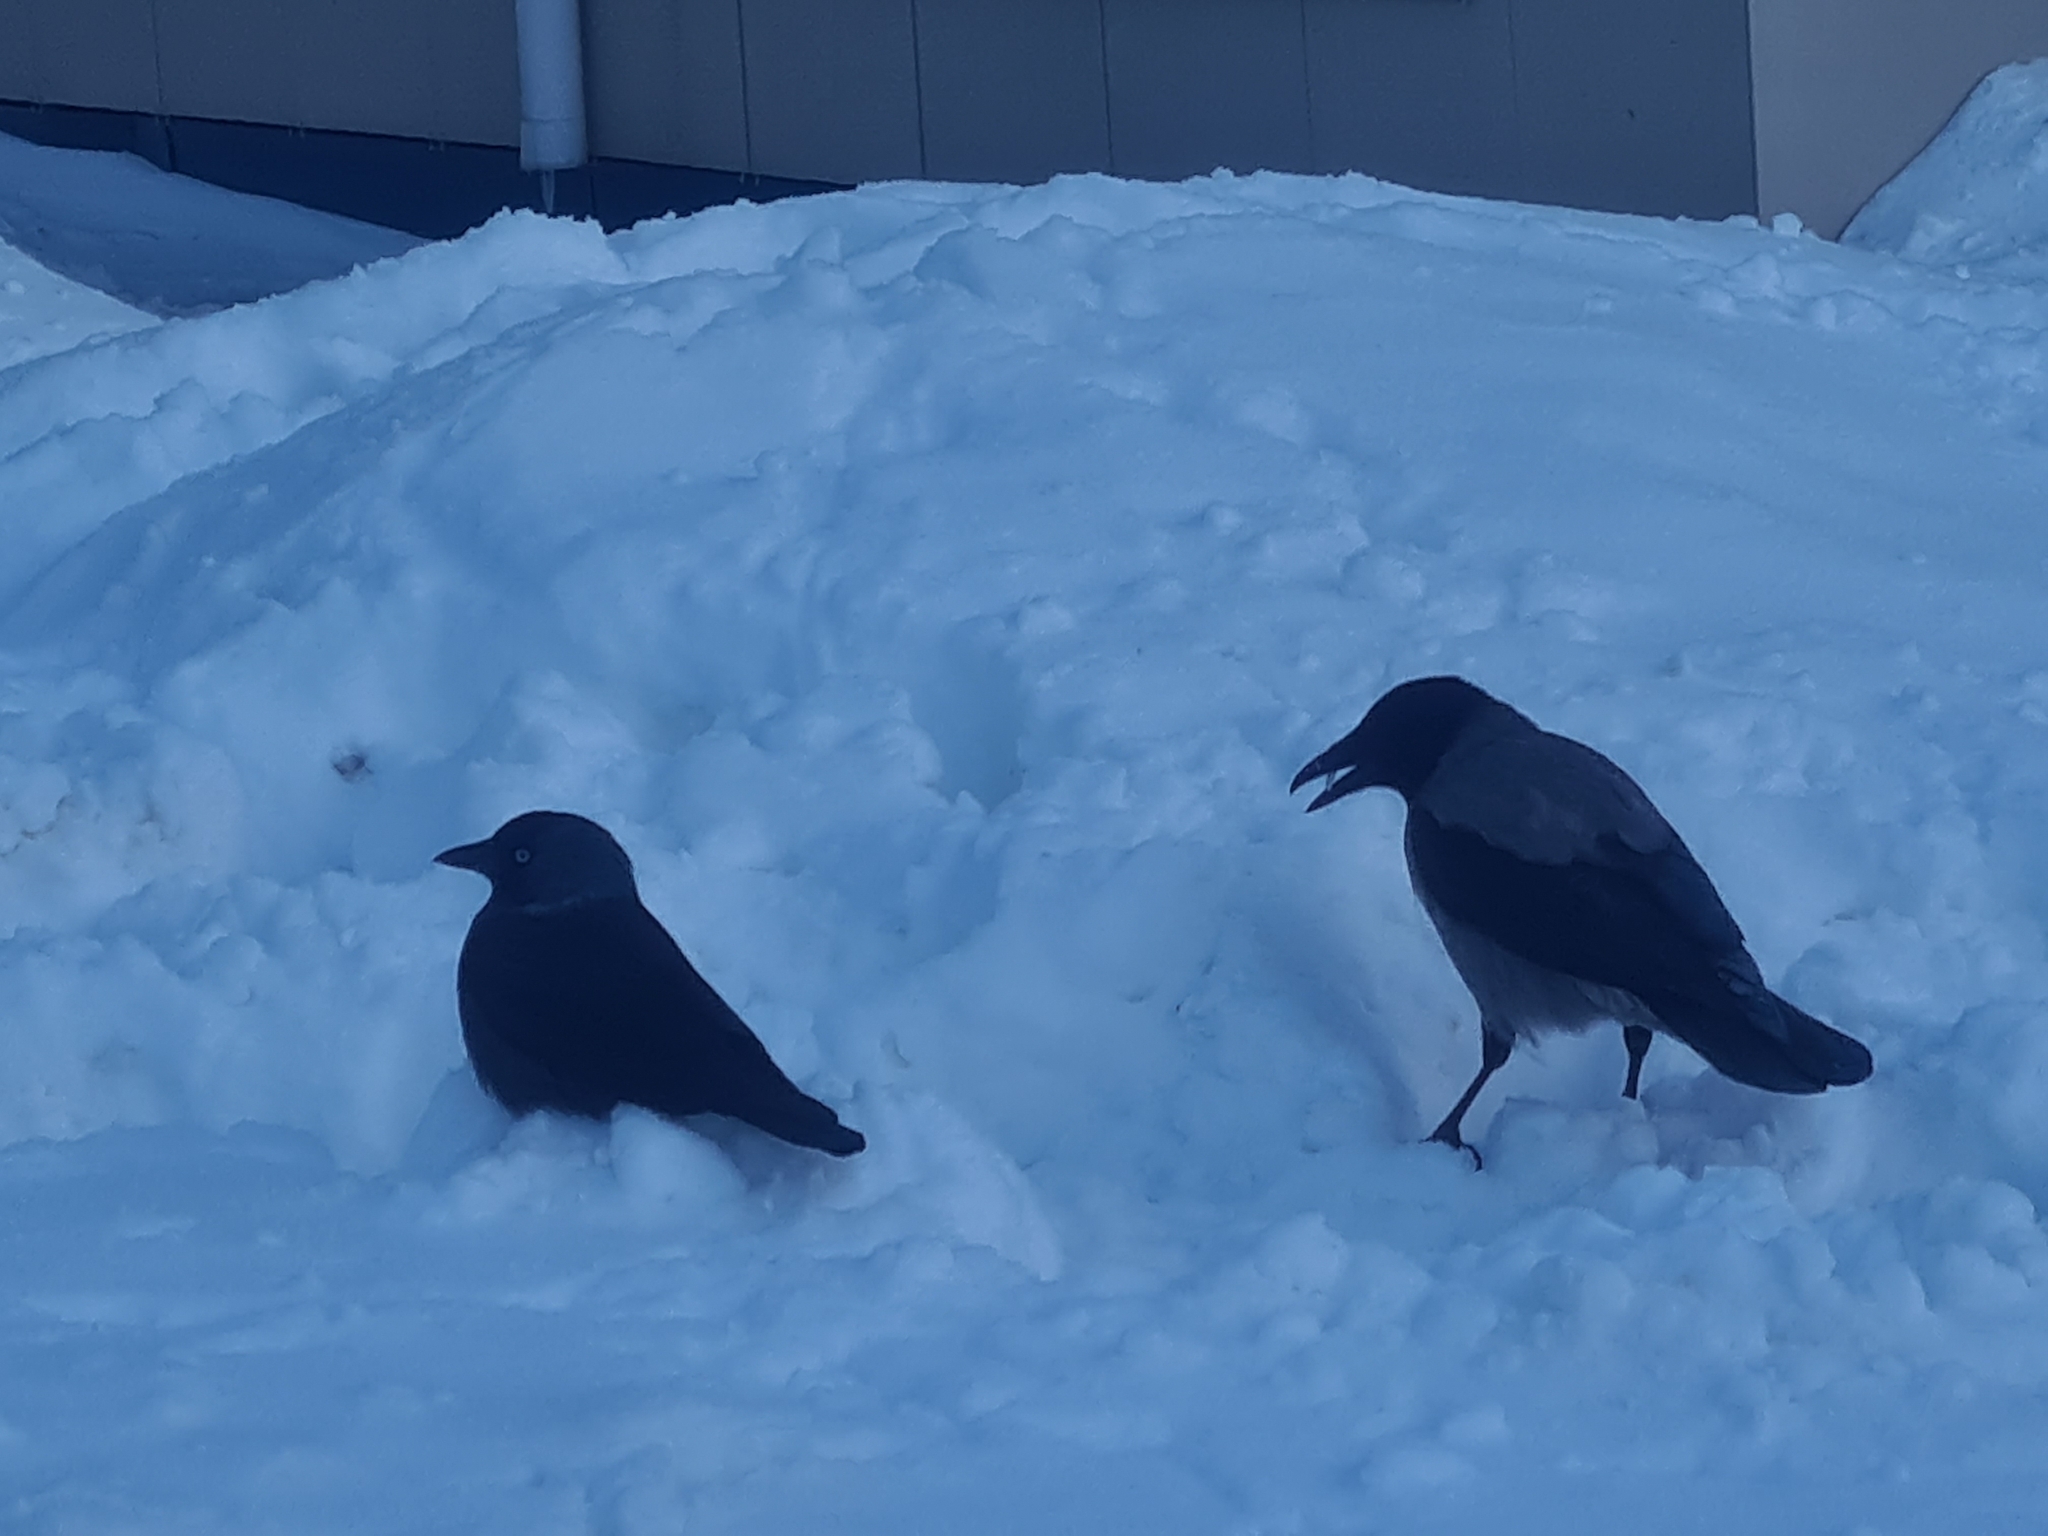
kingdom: Animalia
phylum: Chordata
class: Aves
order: Passeriformes
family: Corvidae
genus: Coloeus
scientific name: Coloeus monedula
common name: Western jackdaw
